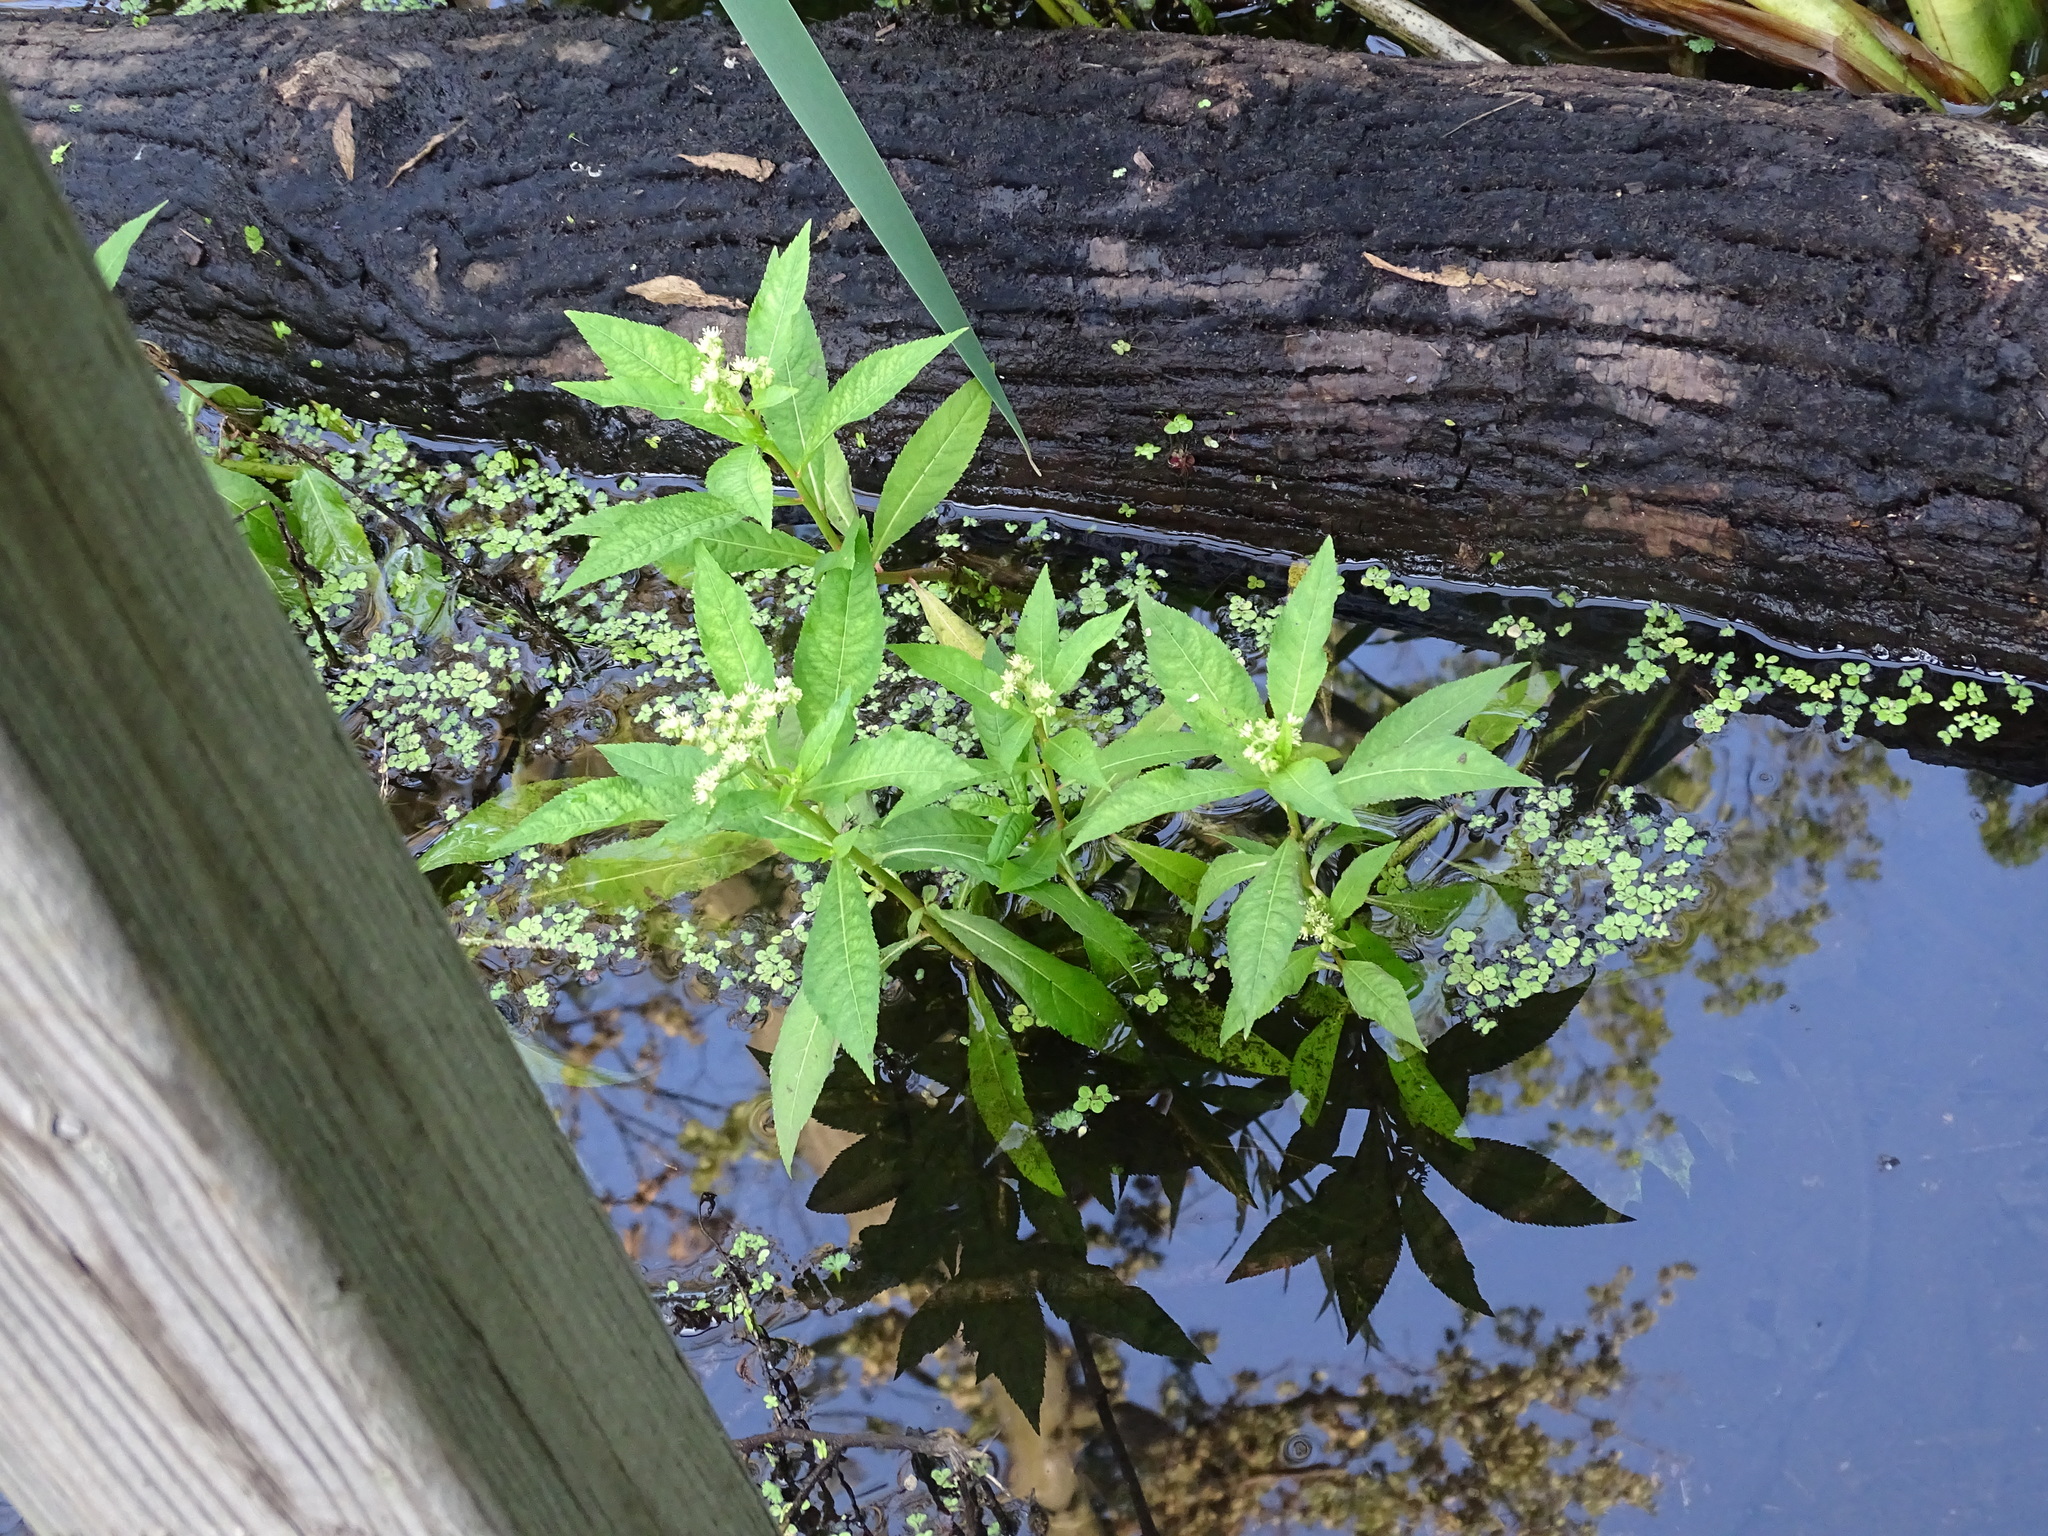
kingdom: Plantae
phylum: Tracheophyta
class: Magnoliopsida
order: Saxifragales
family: Penthoraceae
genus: Penthorum
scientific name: Penthorum sedoides
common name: Ditch stonecrop
